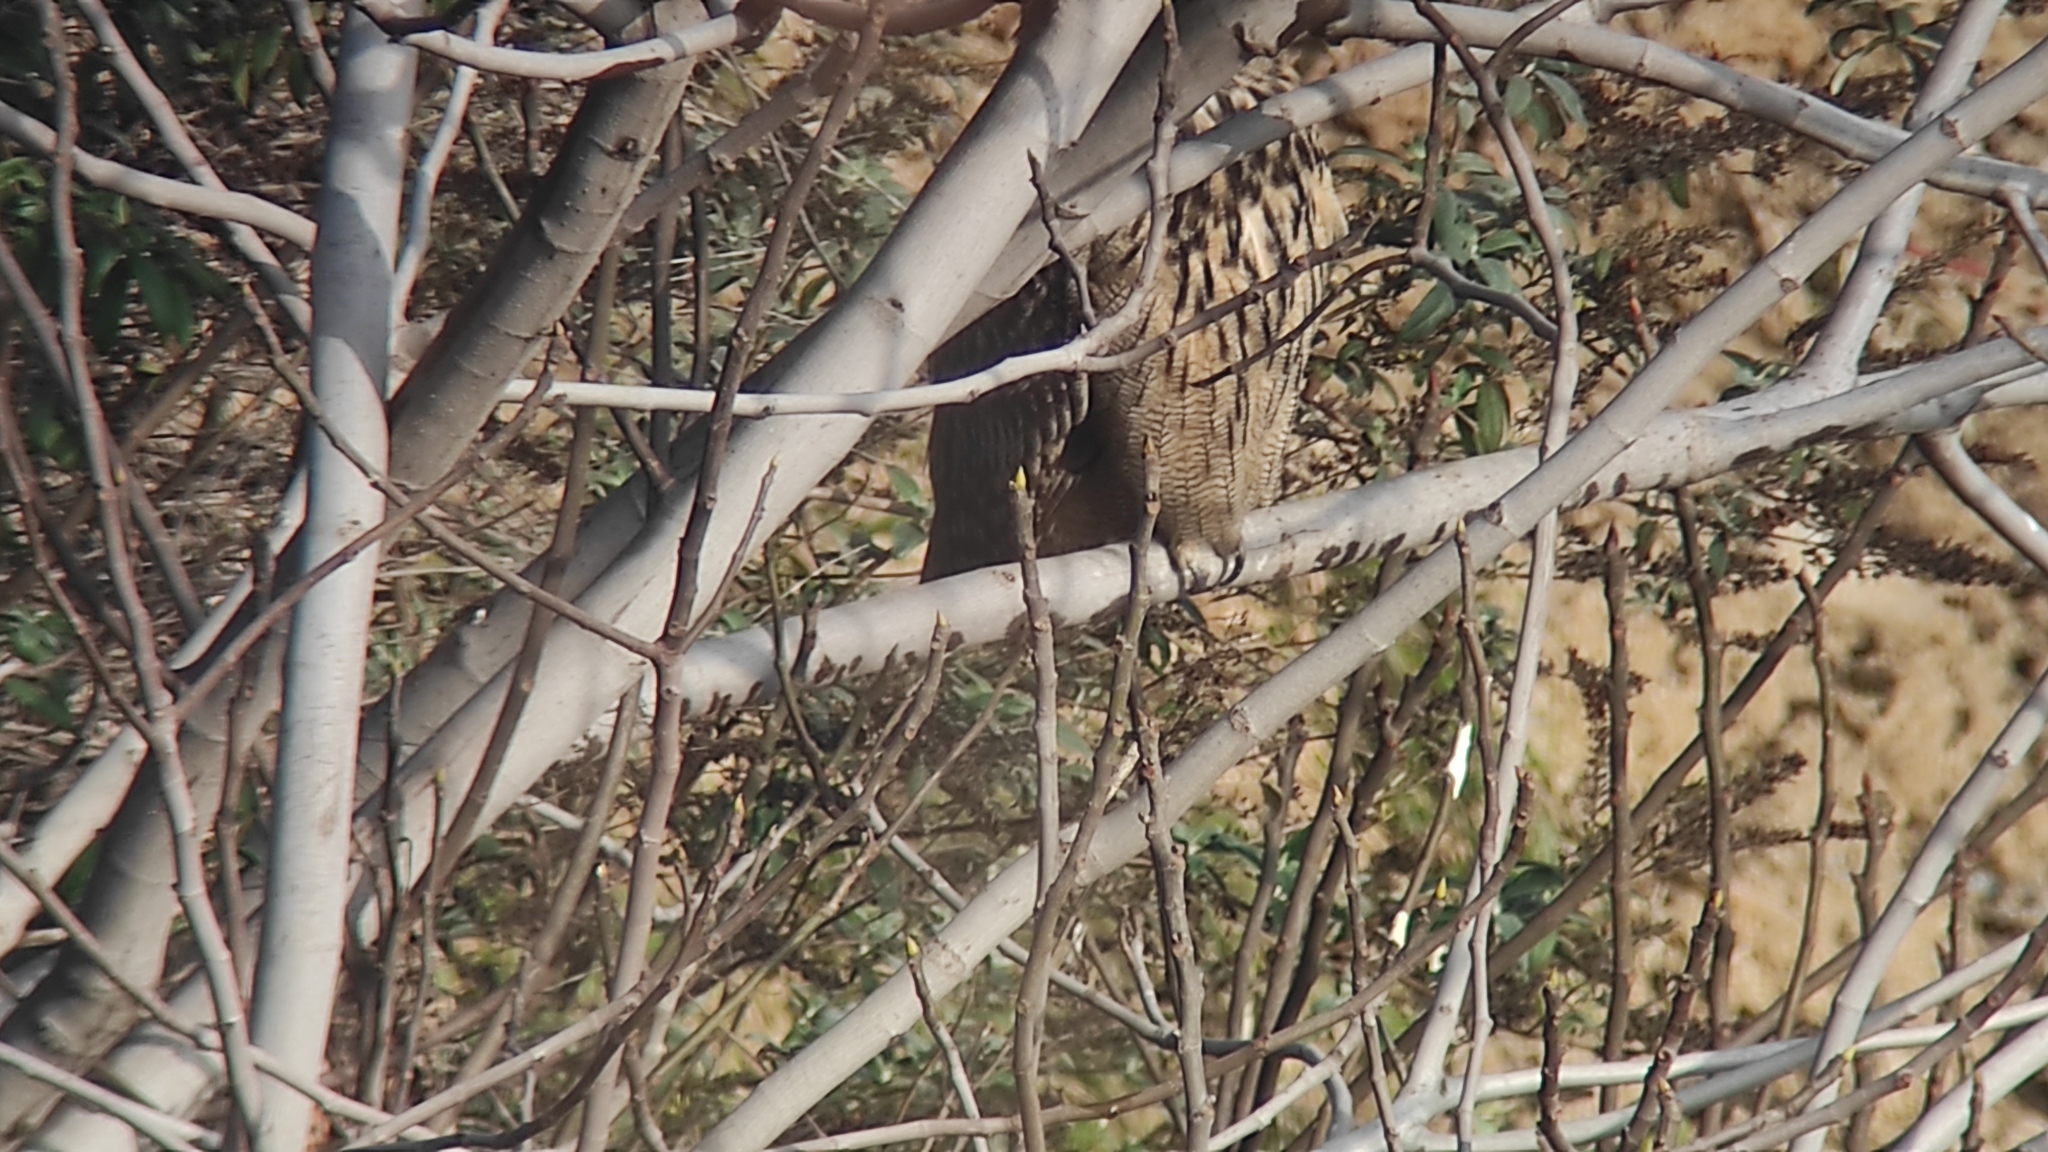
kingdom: Animalia
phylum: Chordata
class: Aves
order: Strigiformes
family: Strigidae
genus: Bubo
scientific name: Bubo bubo
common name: Eurasian eagle-owl
